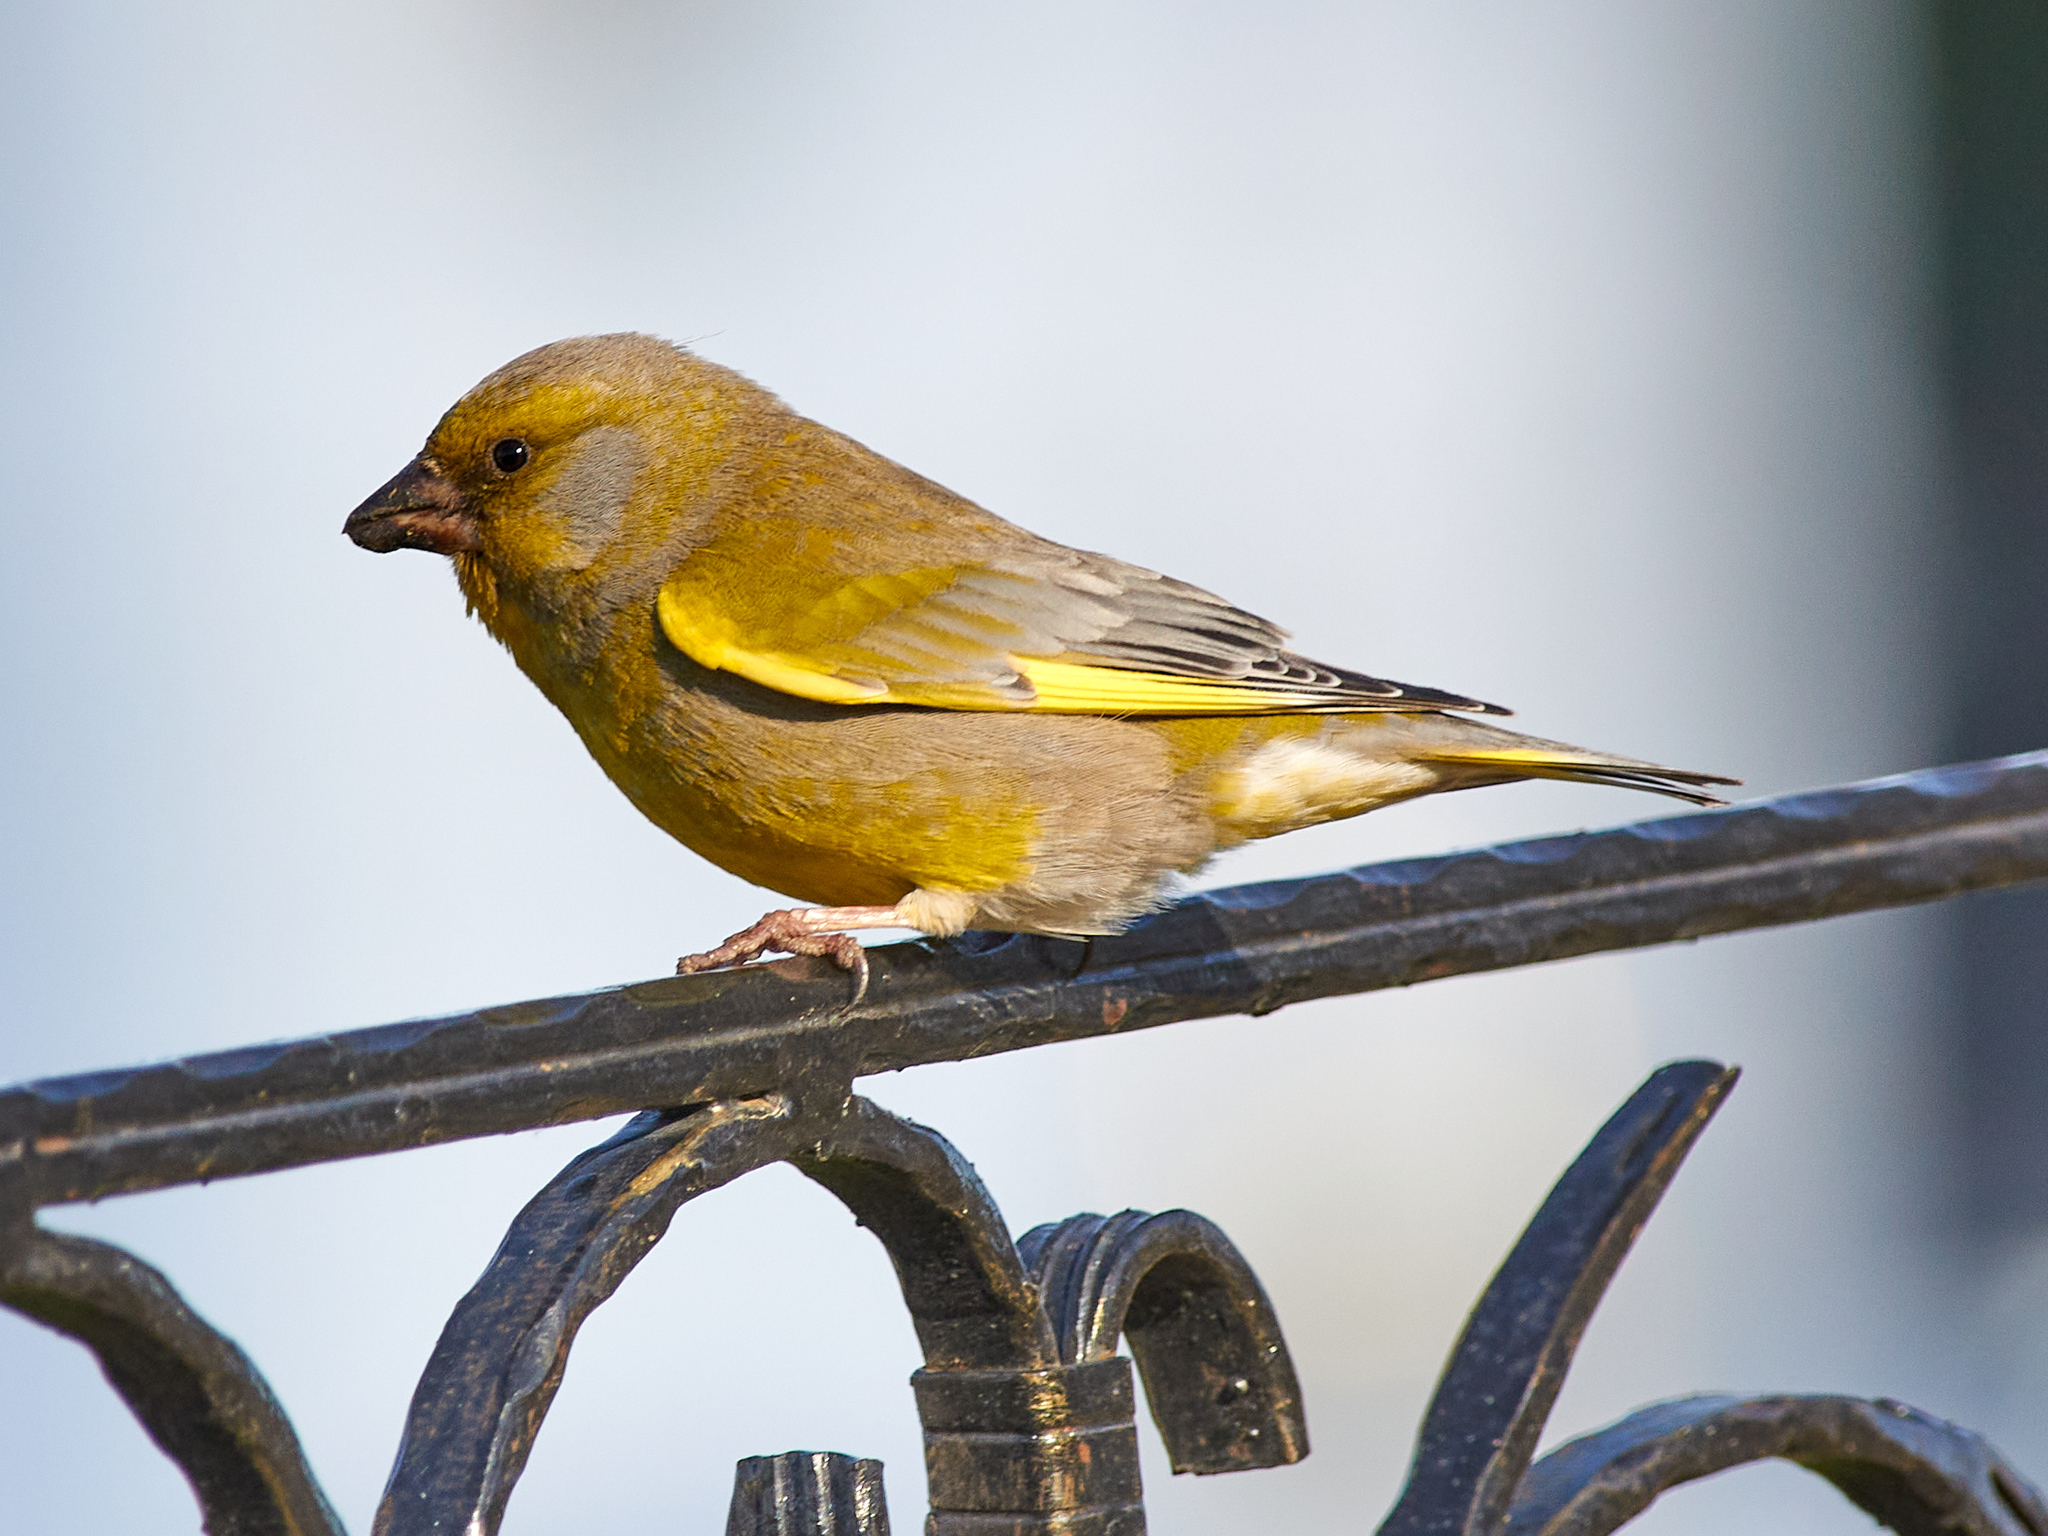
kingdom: Plantae
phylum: Tracheophyta
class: Liliopsida
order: Poales
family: Poaceae
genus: Chloris
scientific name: Chloris chloris
